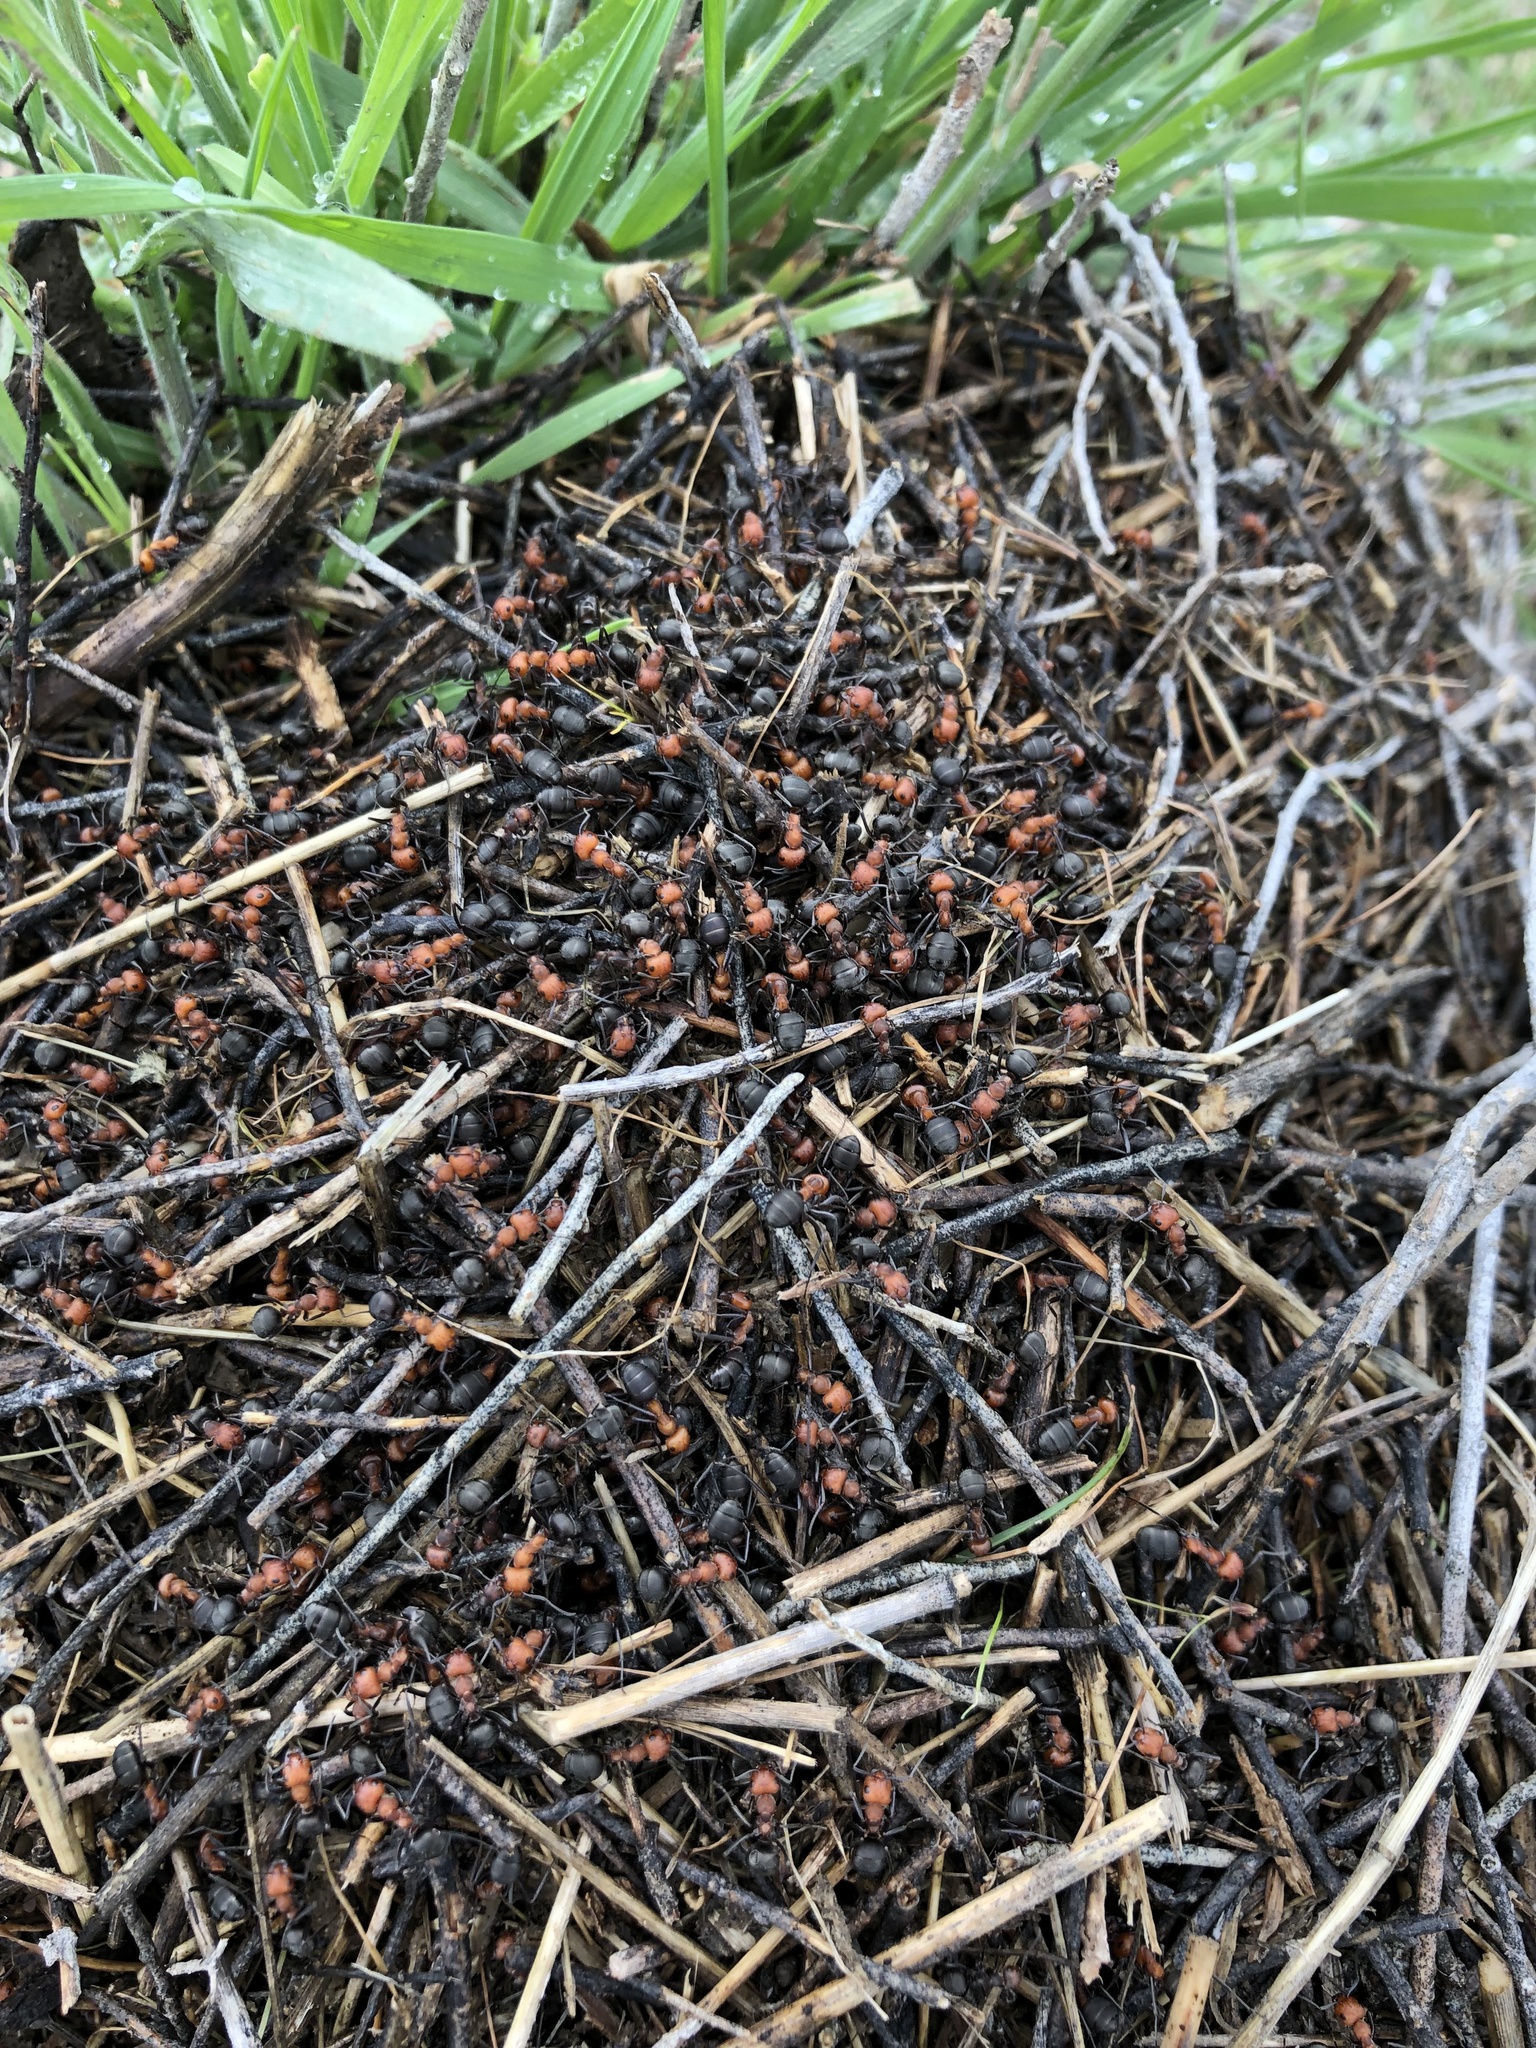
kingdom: Animalia
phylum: Arthropoda
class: Insecta
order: Hymenoptera
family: Formicidae
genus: Formica
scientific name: Formica obscuripes
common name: Western thatching ant
